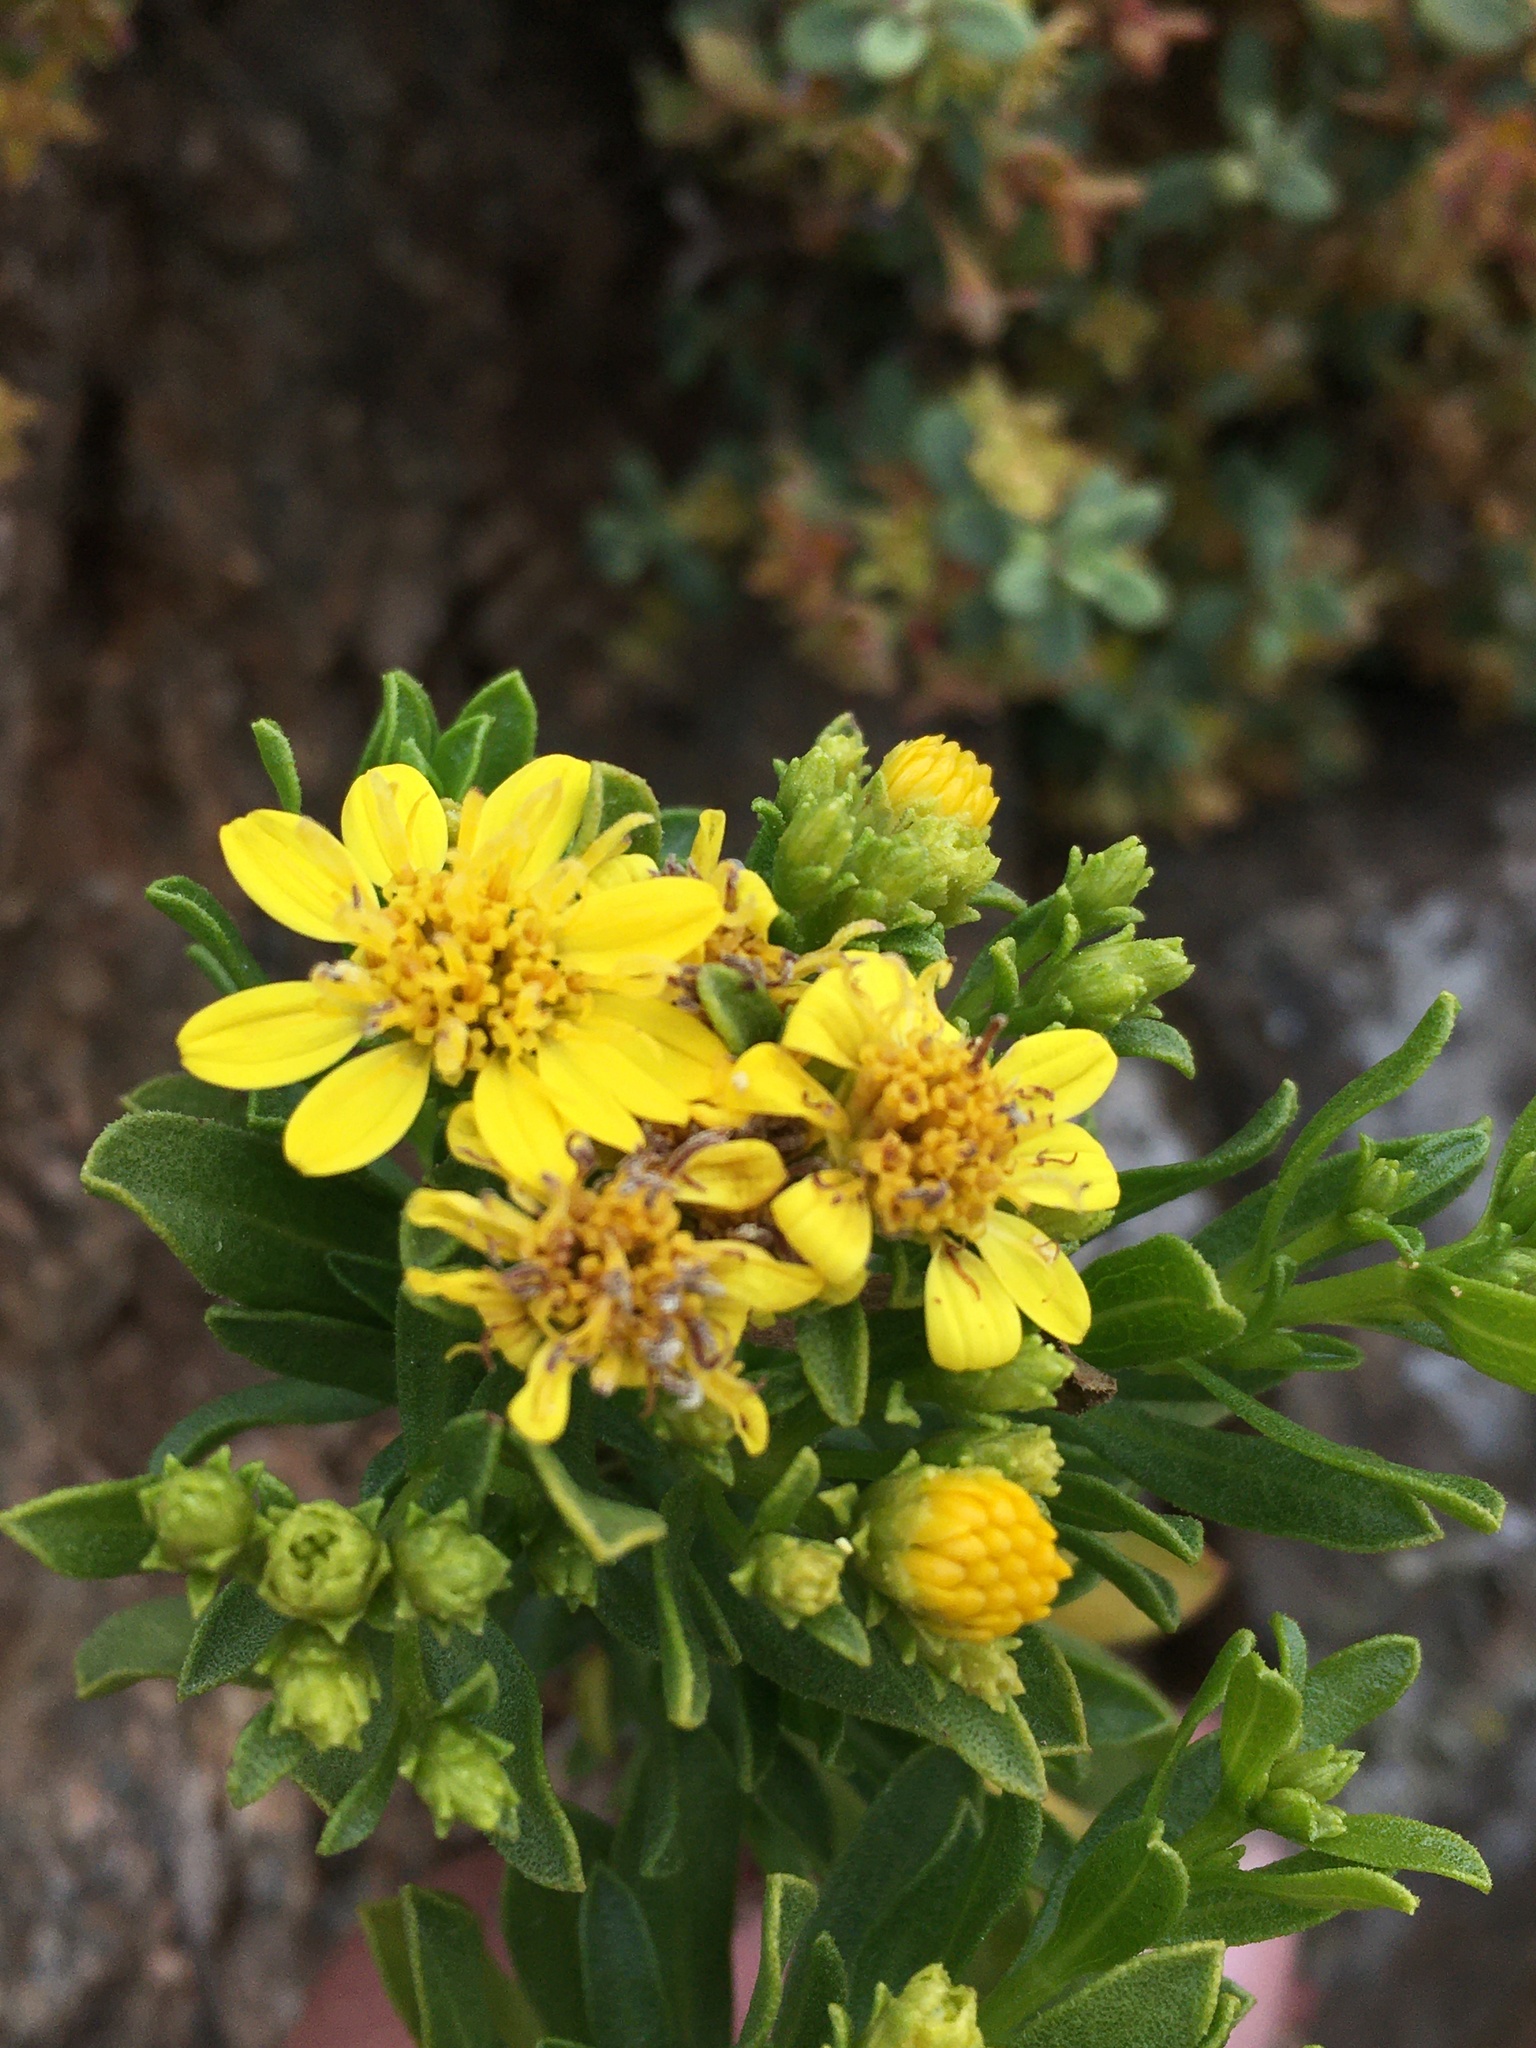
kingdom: Plantae
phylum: Tracheophyta
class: Magnoliopsida
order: Asterales
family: Asteraceae
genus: Gutierrezia
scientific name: Gutierrezia espinosae
